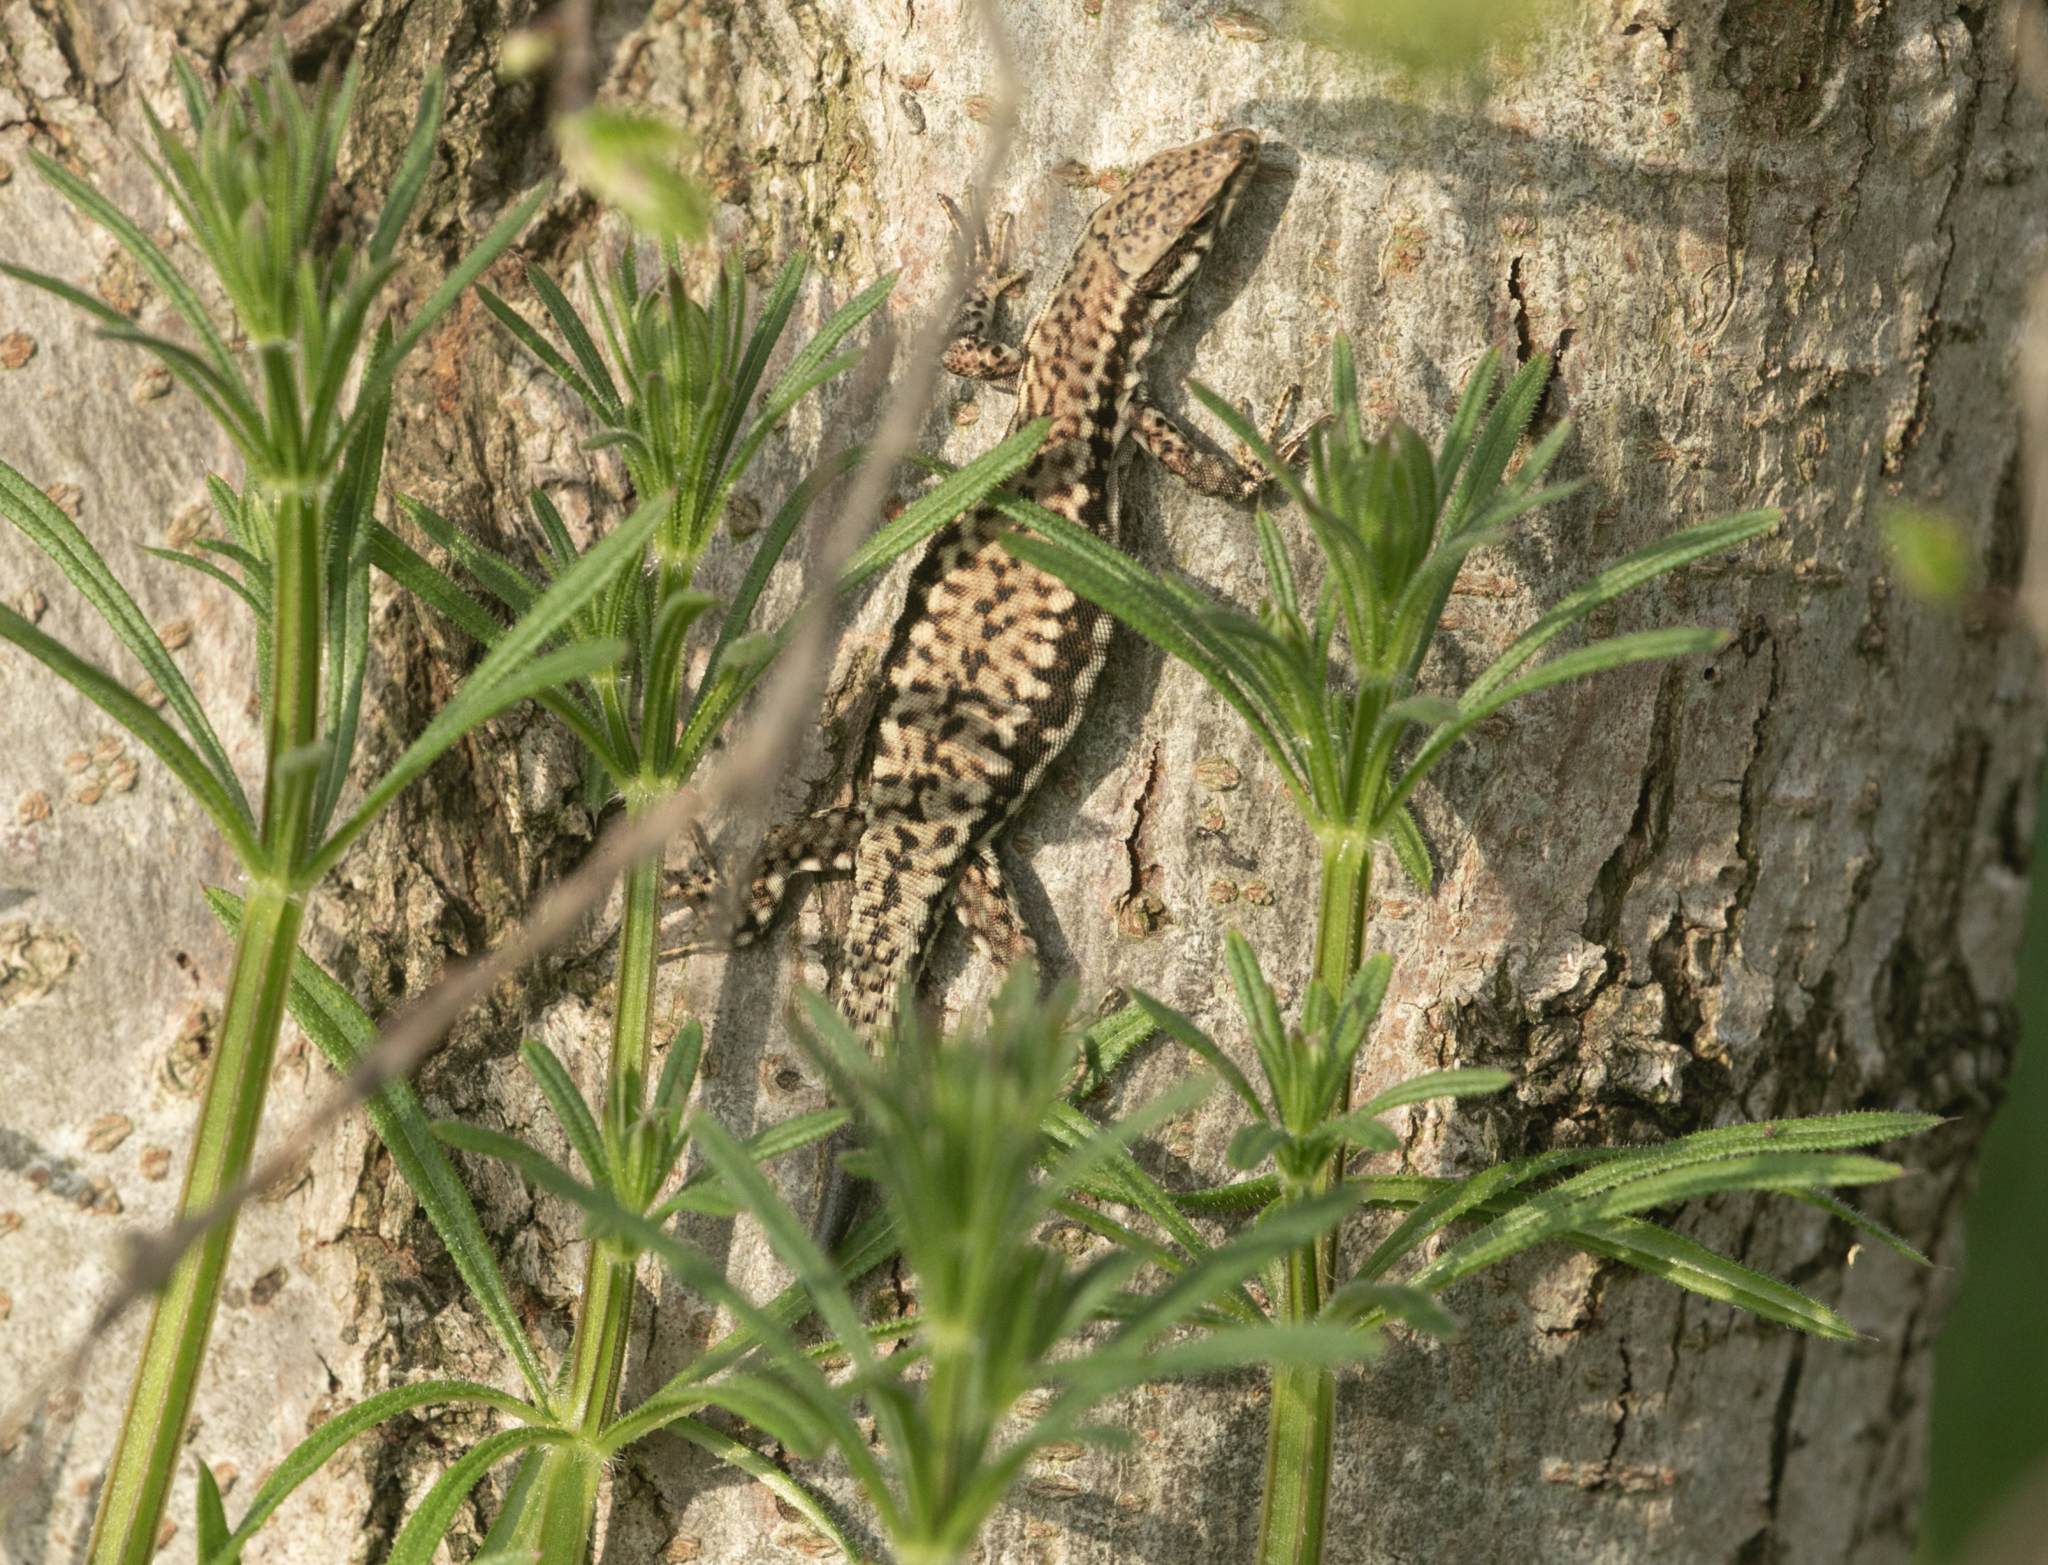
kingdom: Animalia
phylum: Chordata
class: Squamata
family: Lacertidae
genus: Podarcis
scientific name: Podarcis muralis
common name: Common wall lizard
